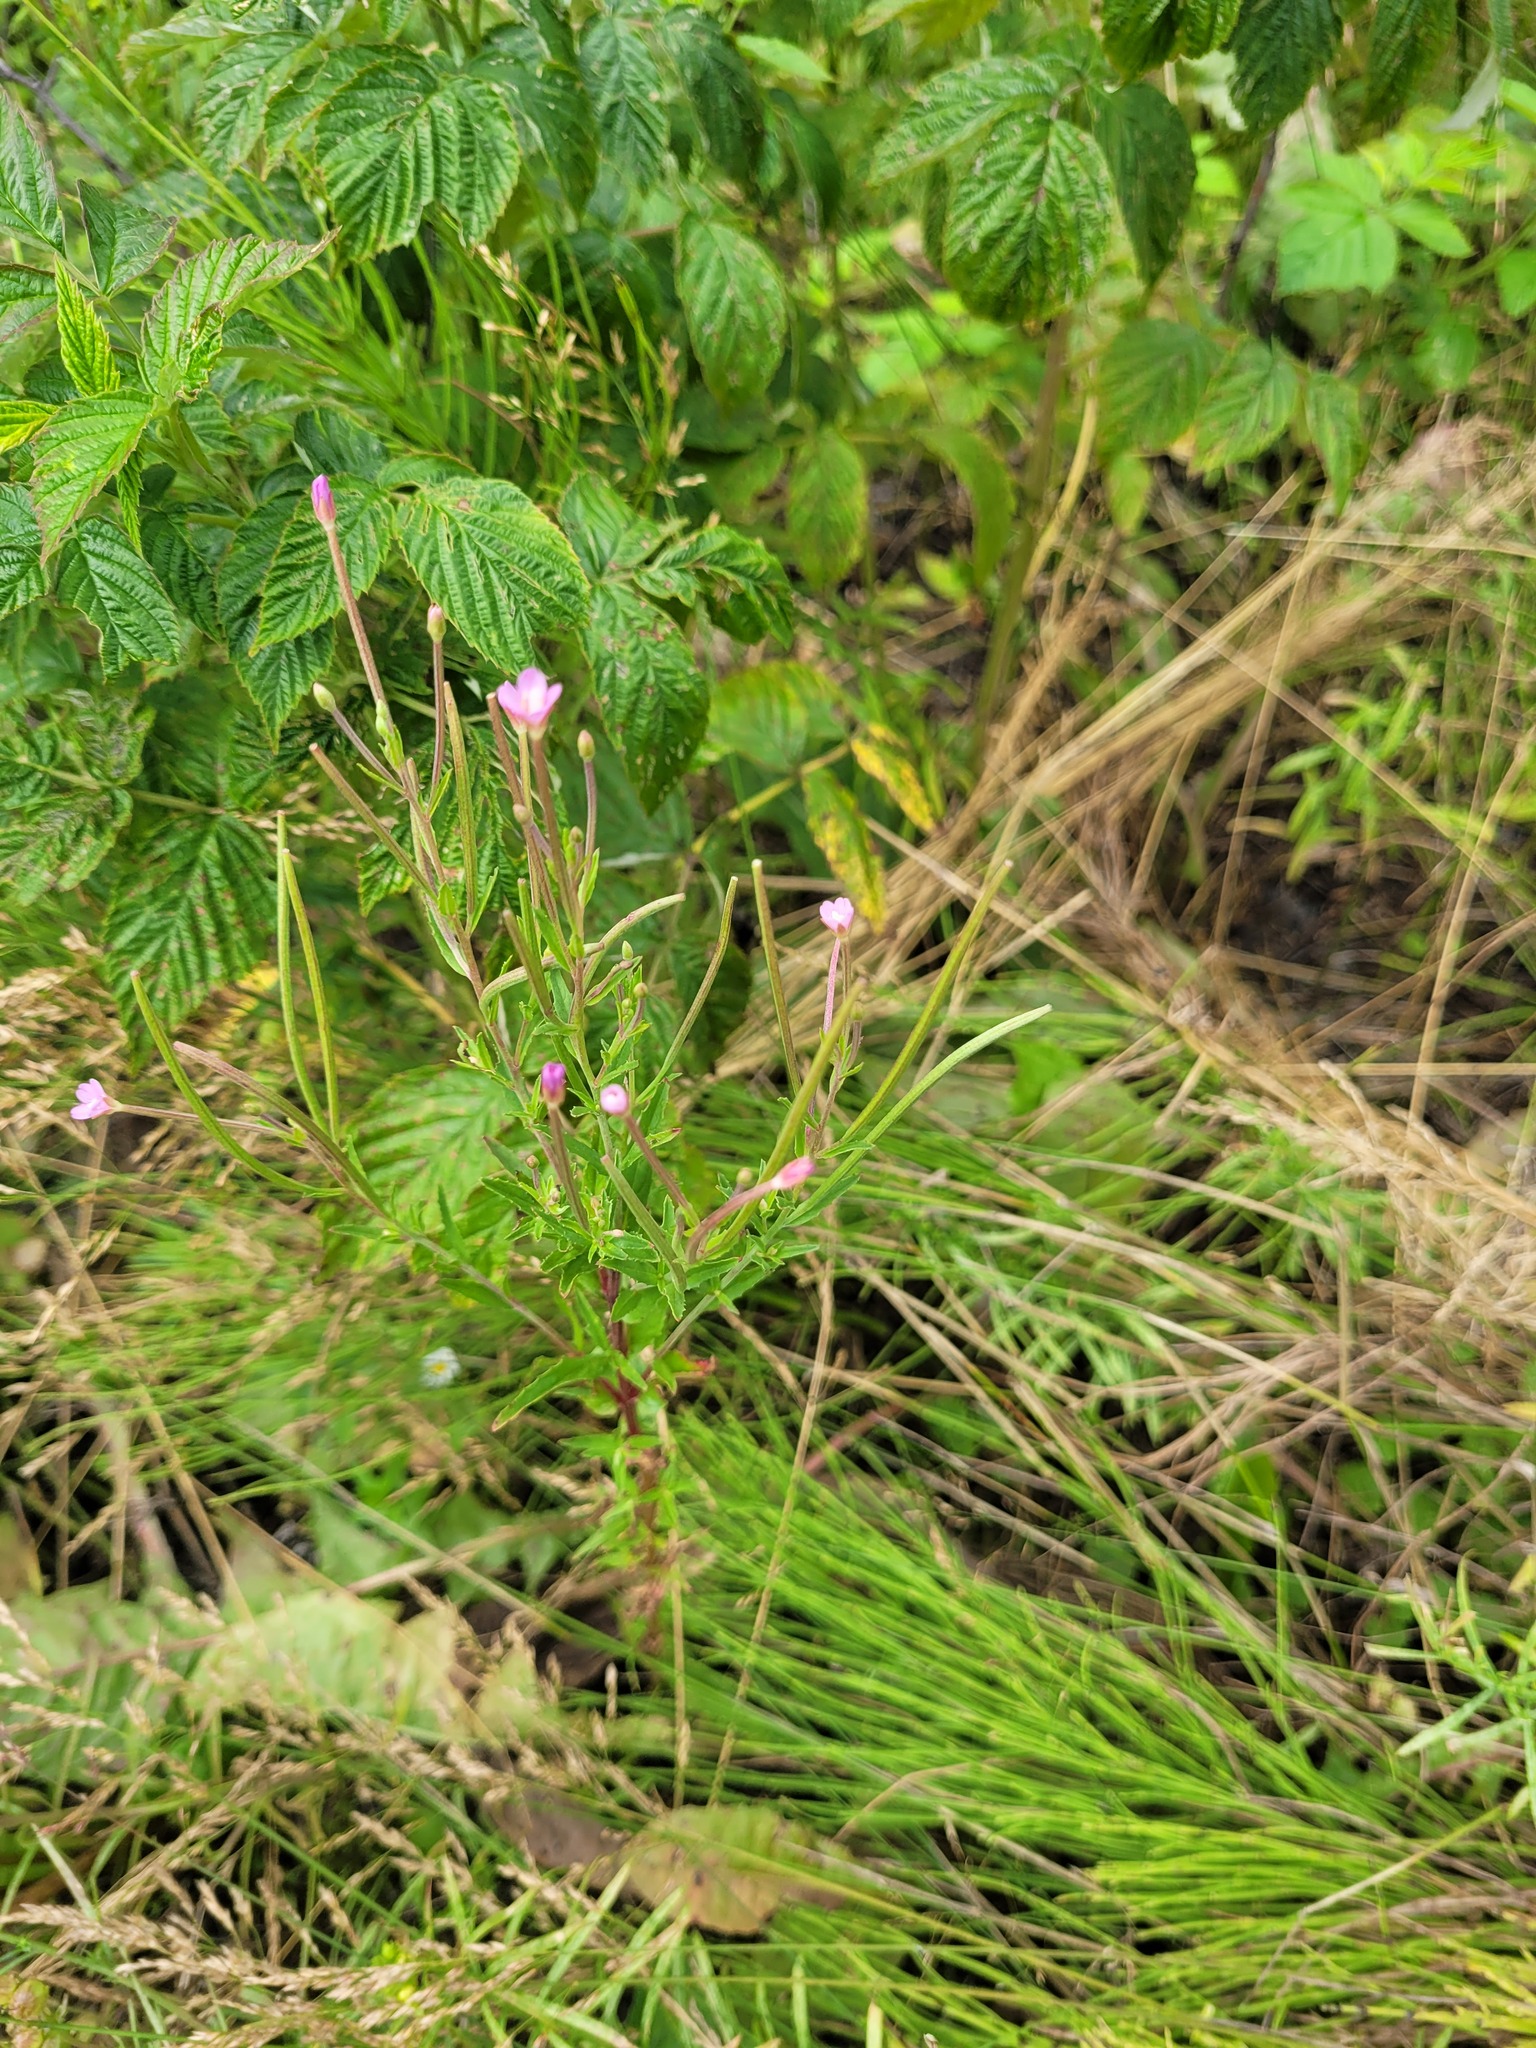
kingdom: Plantae
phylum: Tracheophyta
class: Magnoliopsida
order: Myrtales
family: Onagraceae
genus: Epilobium
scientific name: Epilobium tetragonum
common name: Square-stemmed willowherb
